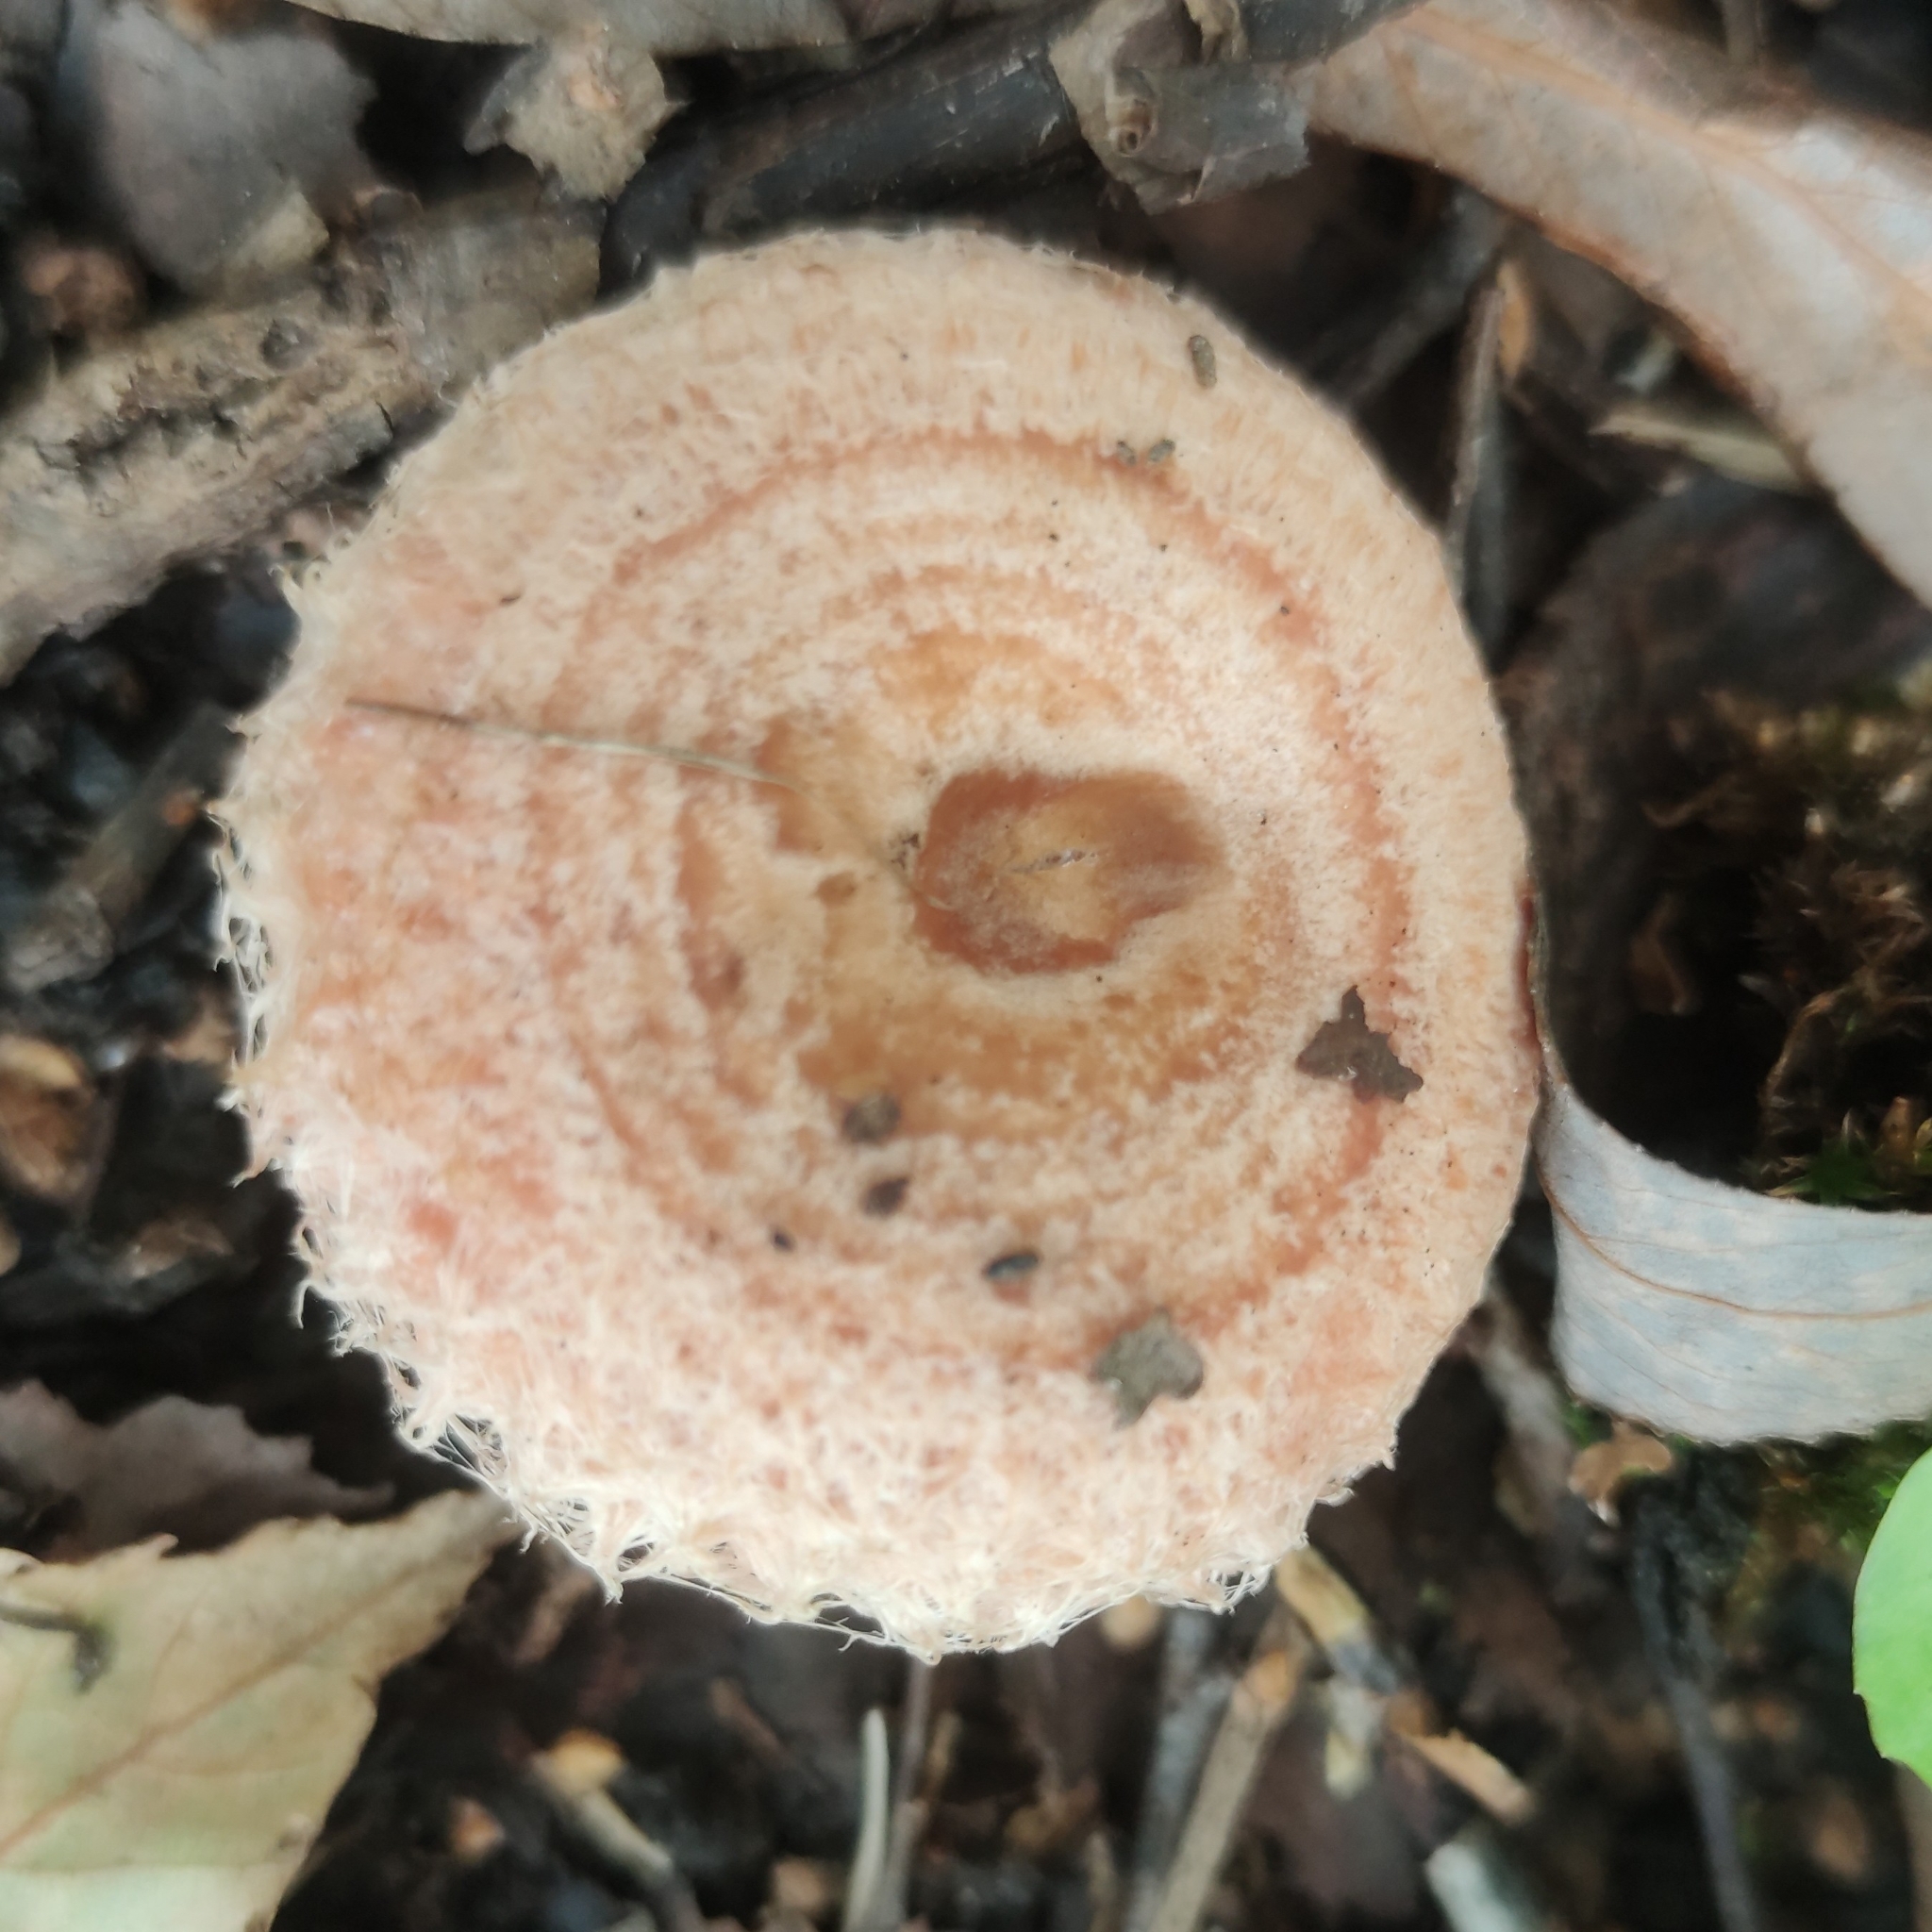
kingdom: Fungi
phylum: Basidiomycota
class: Agaricomycetes
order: Russulales
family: Russulaceae
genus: Lactarius
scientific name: Lactarius torminosus
